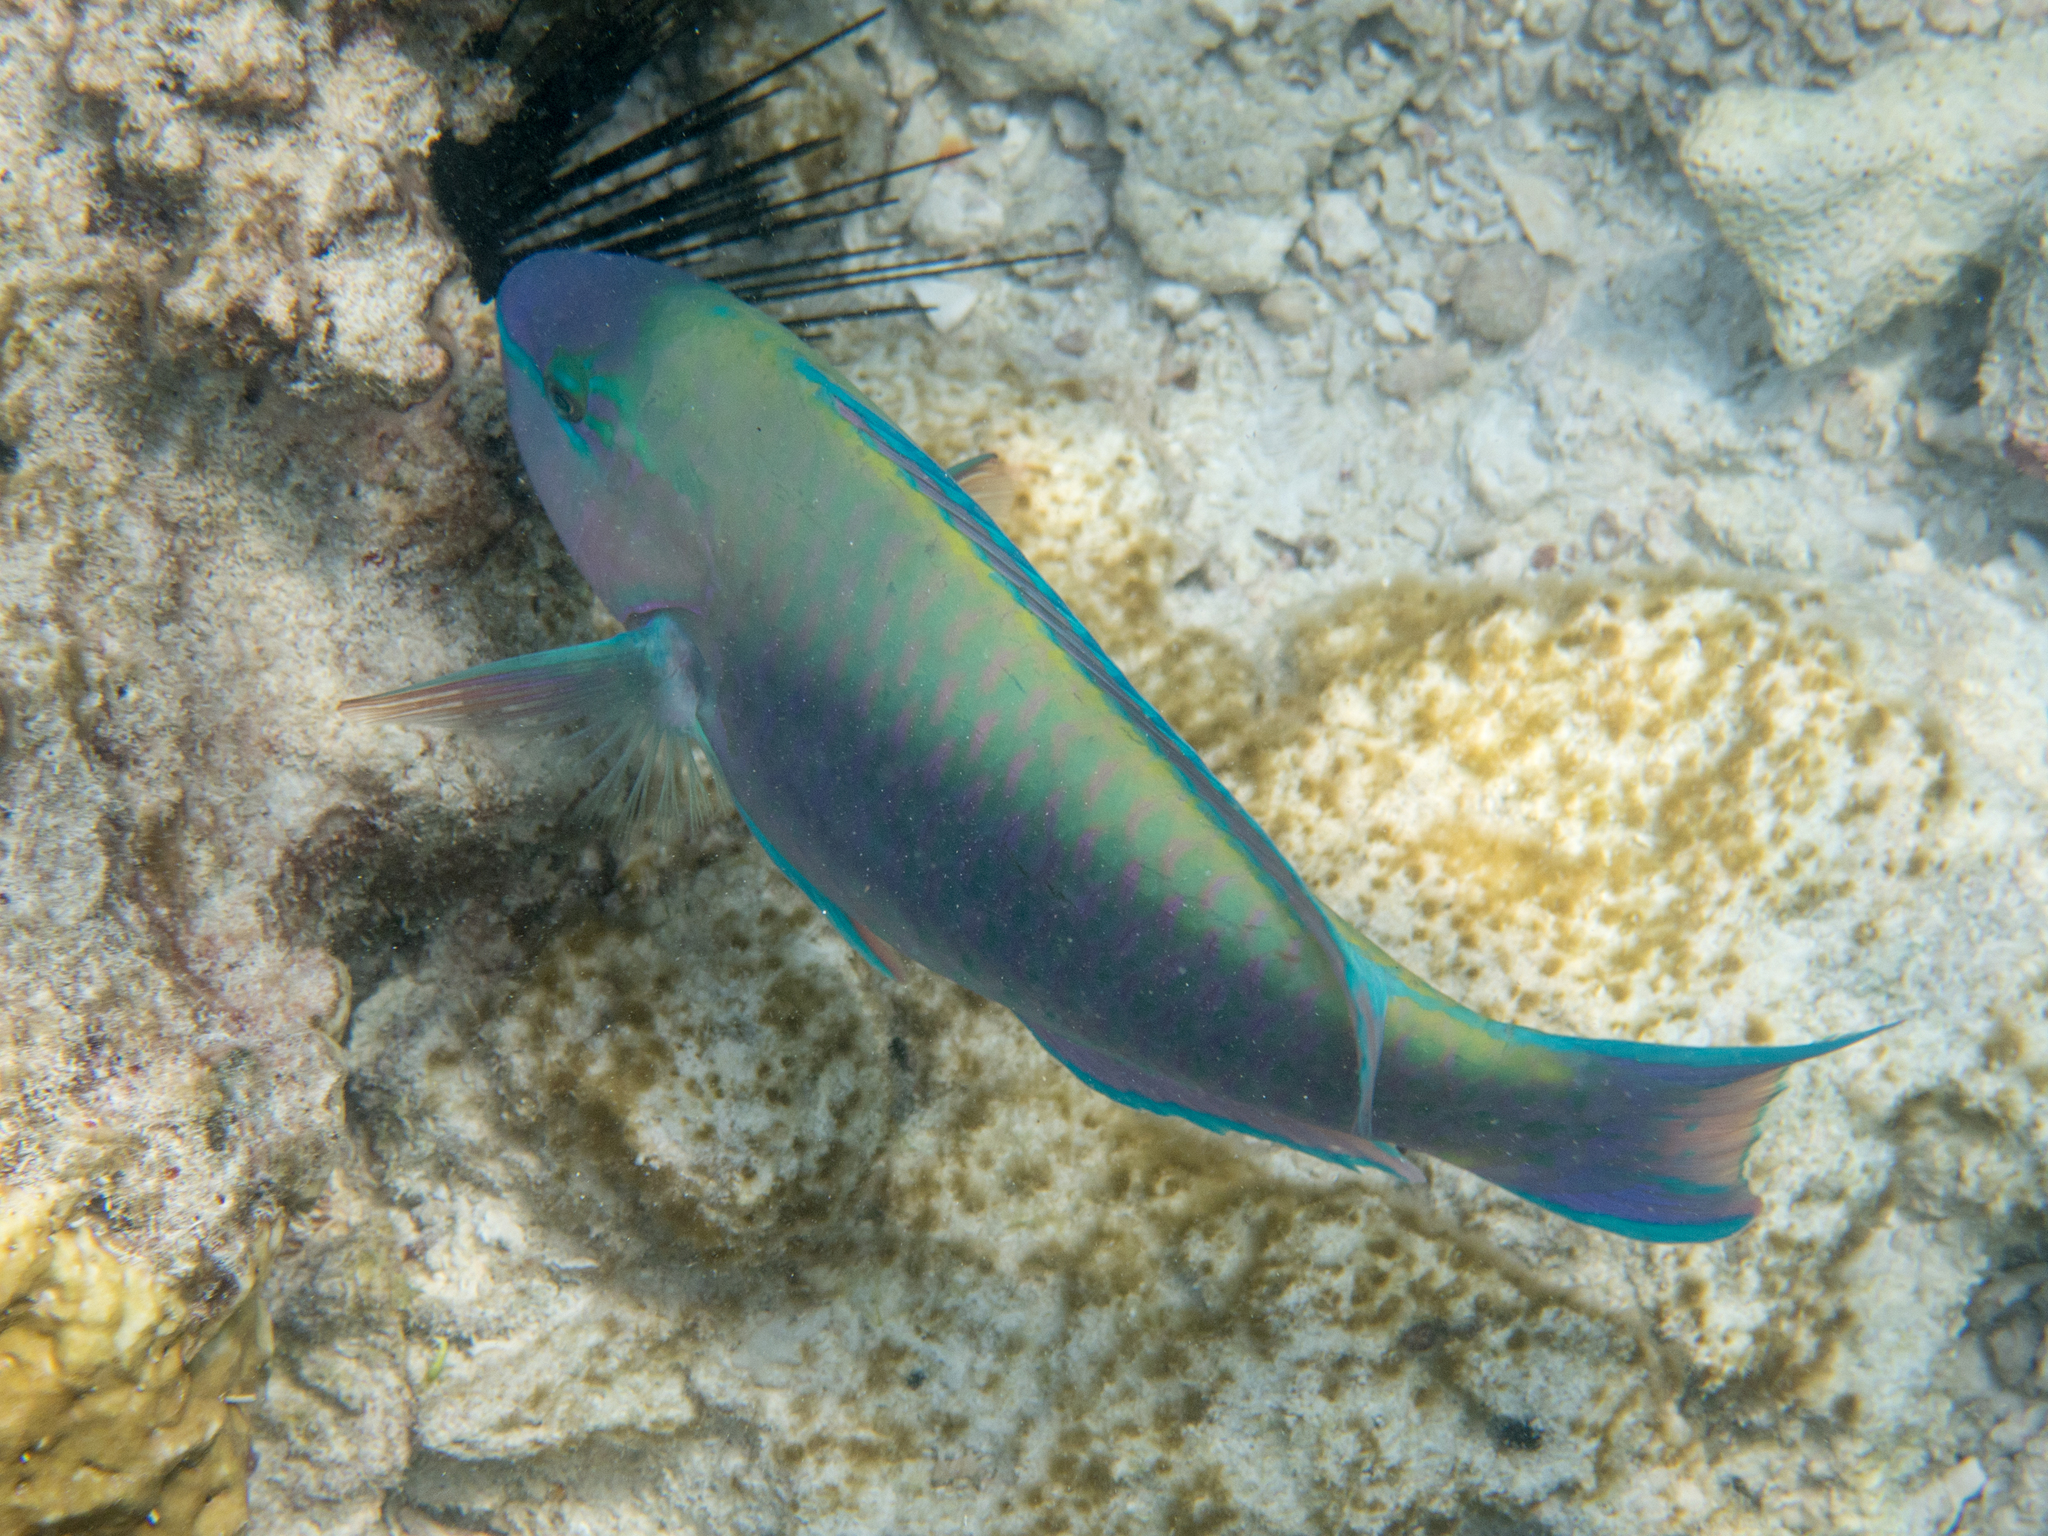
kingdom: Animalia
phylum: Chordata
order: Perciformes
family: Scaridae
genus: Scarus
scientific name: Scarus psittacus
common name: Palenose parrotfish
